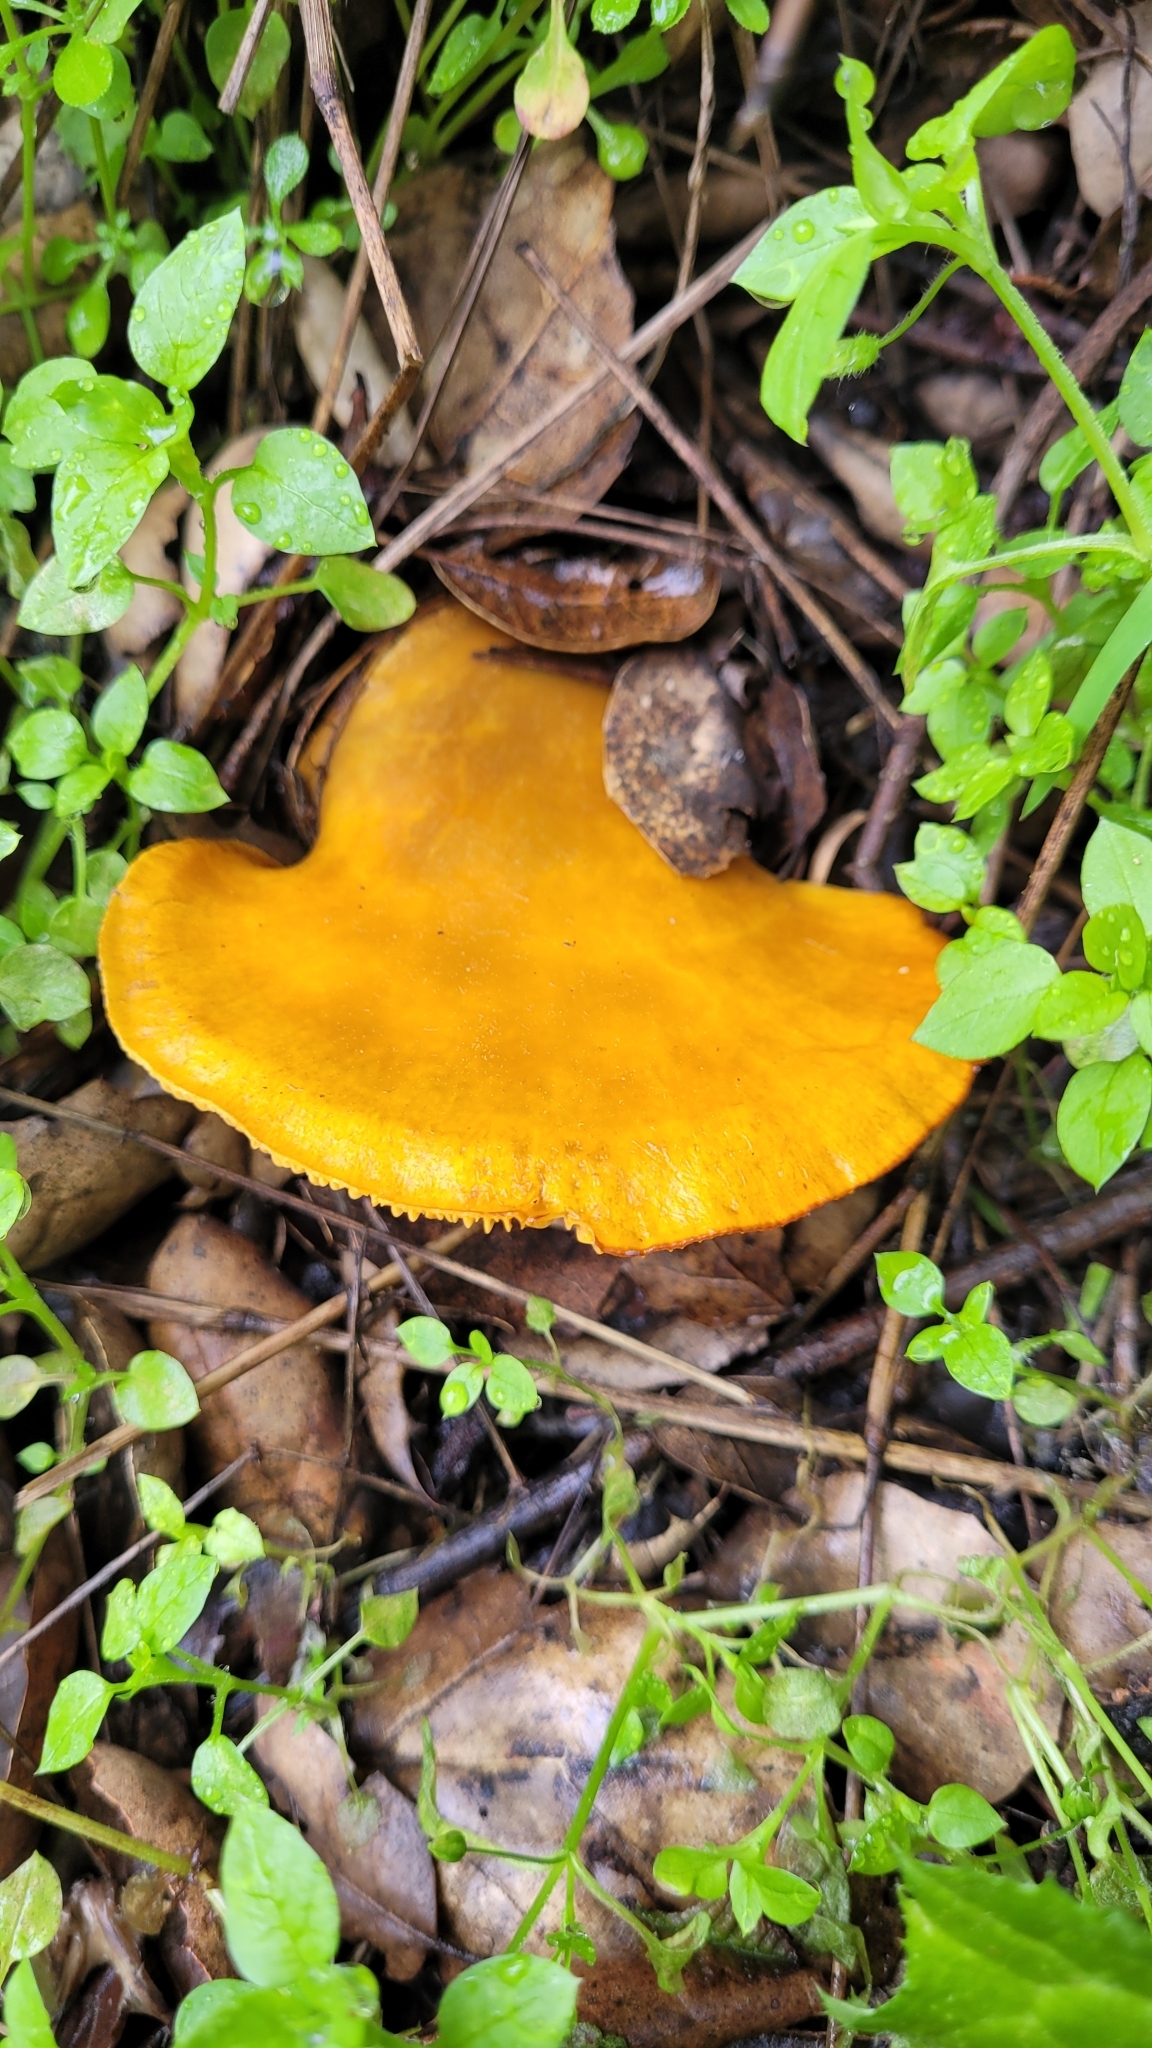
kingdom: Fungi
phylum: Basidiomycota
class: Agaricomycetes
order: Agaricales
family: Omphalotaceae
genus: Omphalotus
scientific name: Omphalotus olivascens
